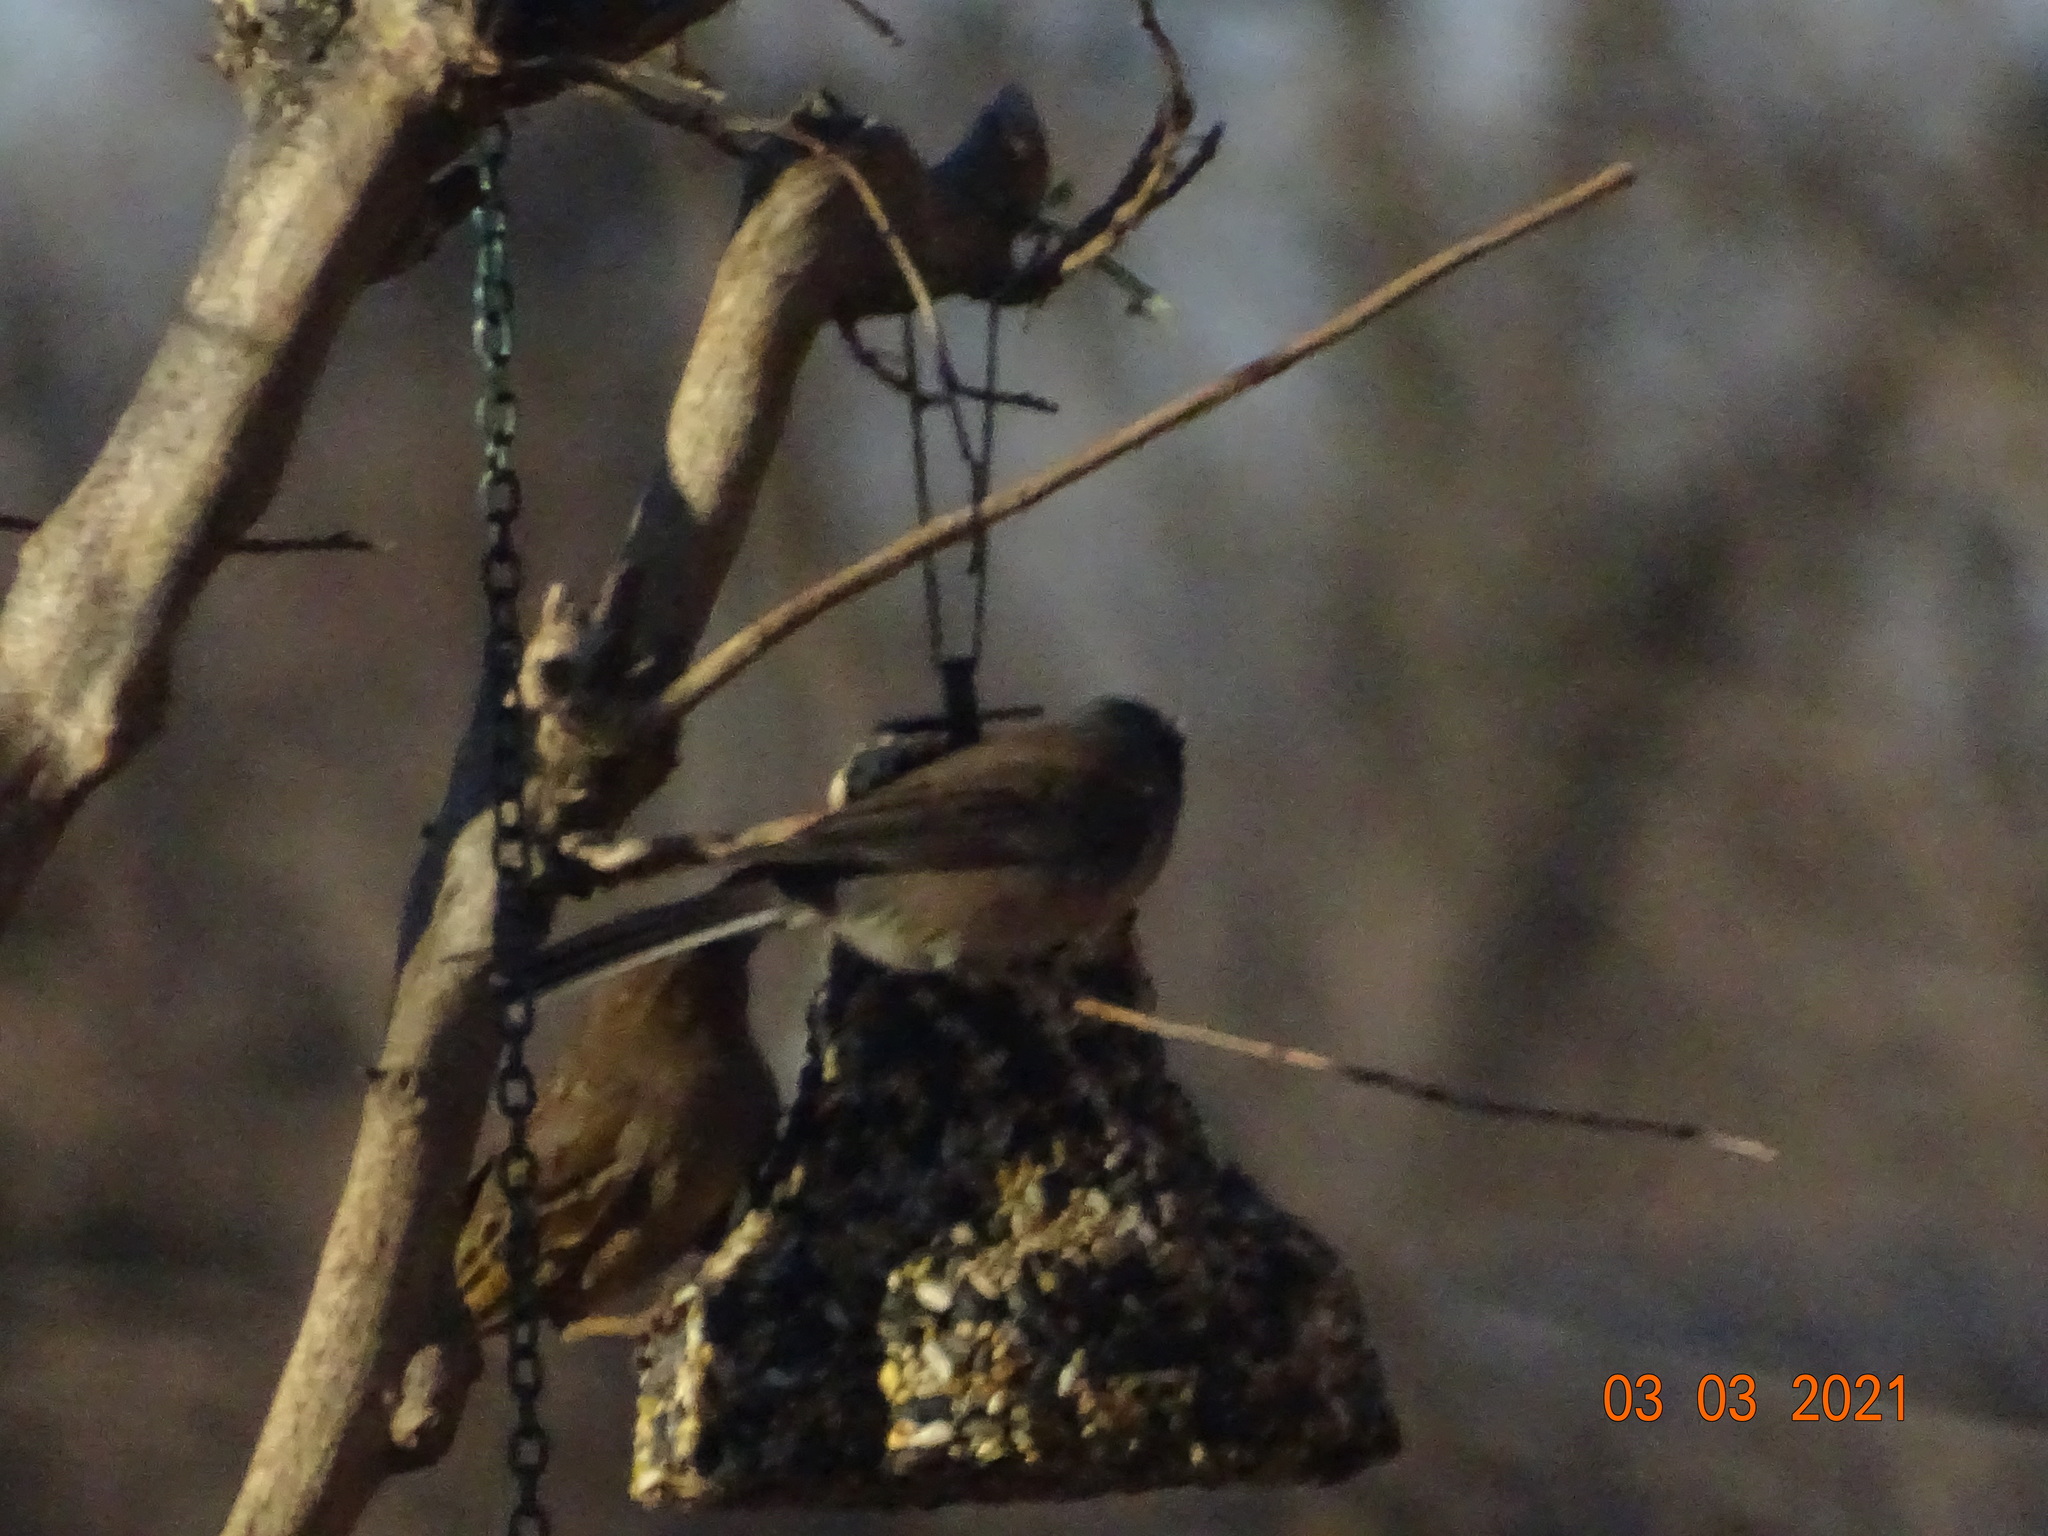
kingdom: Animalia
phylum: Chordata
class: Aves
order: Passeriformes
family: Passeridae
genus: Passer
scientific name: Passer domesticus
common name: House sparrow
